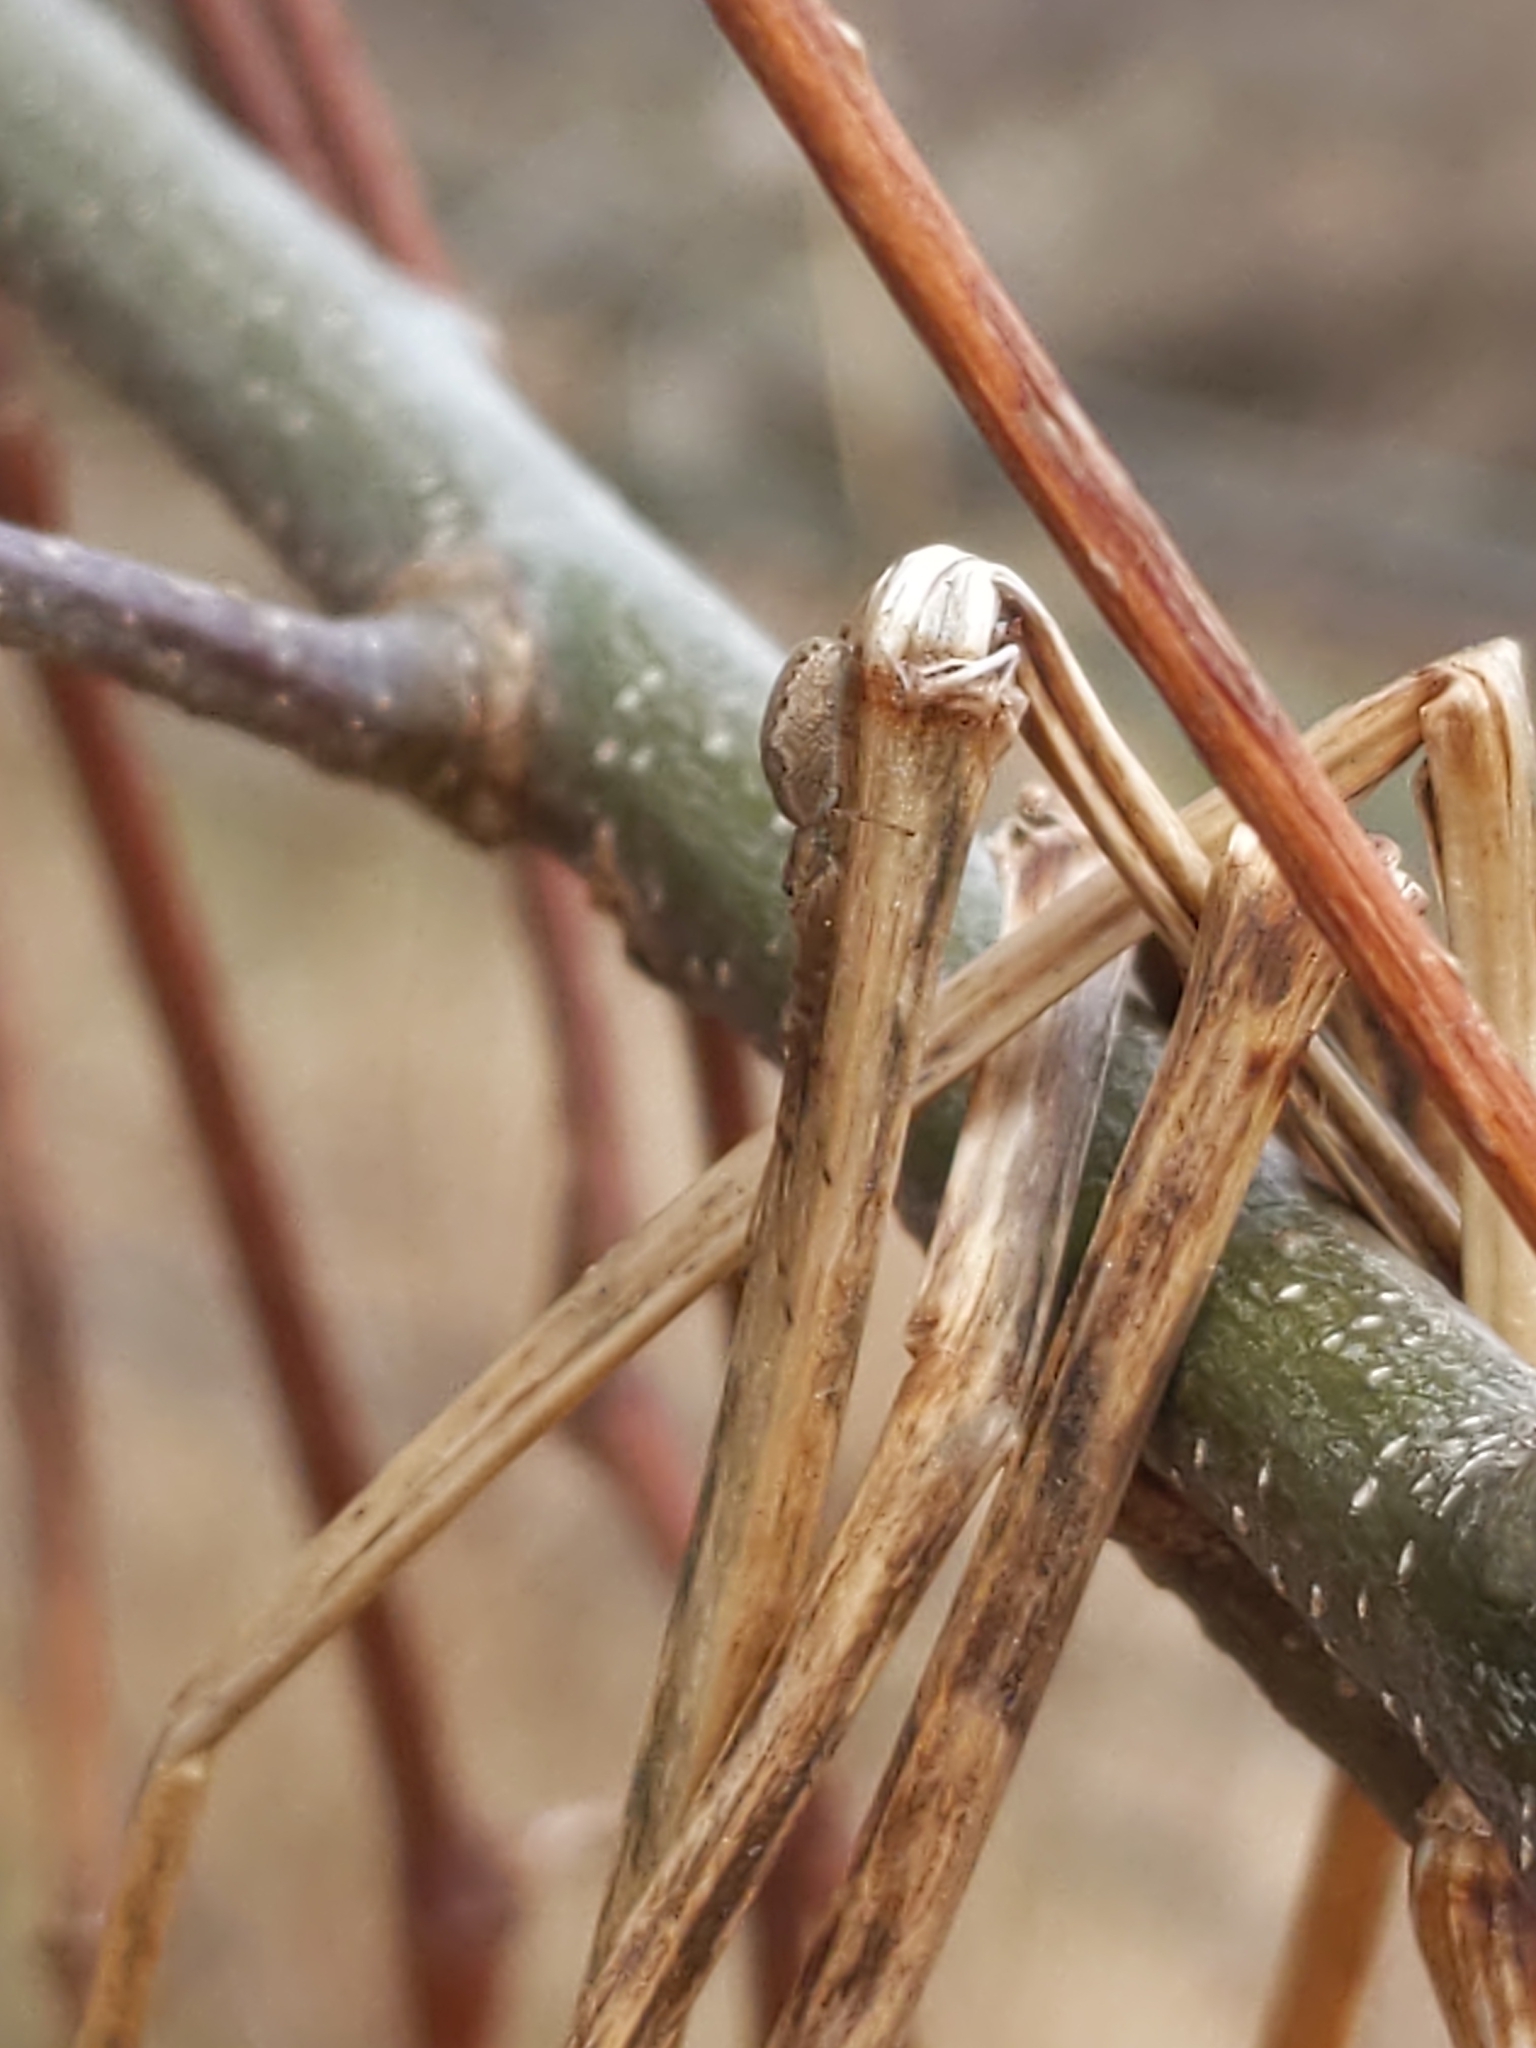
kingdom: Animalia
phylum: Arthropoda
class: Arachnida
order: Araneae
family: Tetragnathidae
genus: Tetragnatha
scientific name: Tetragnatha
